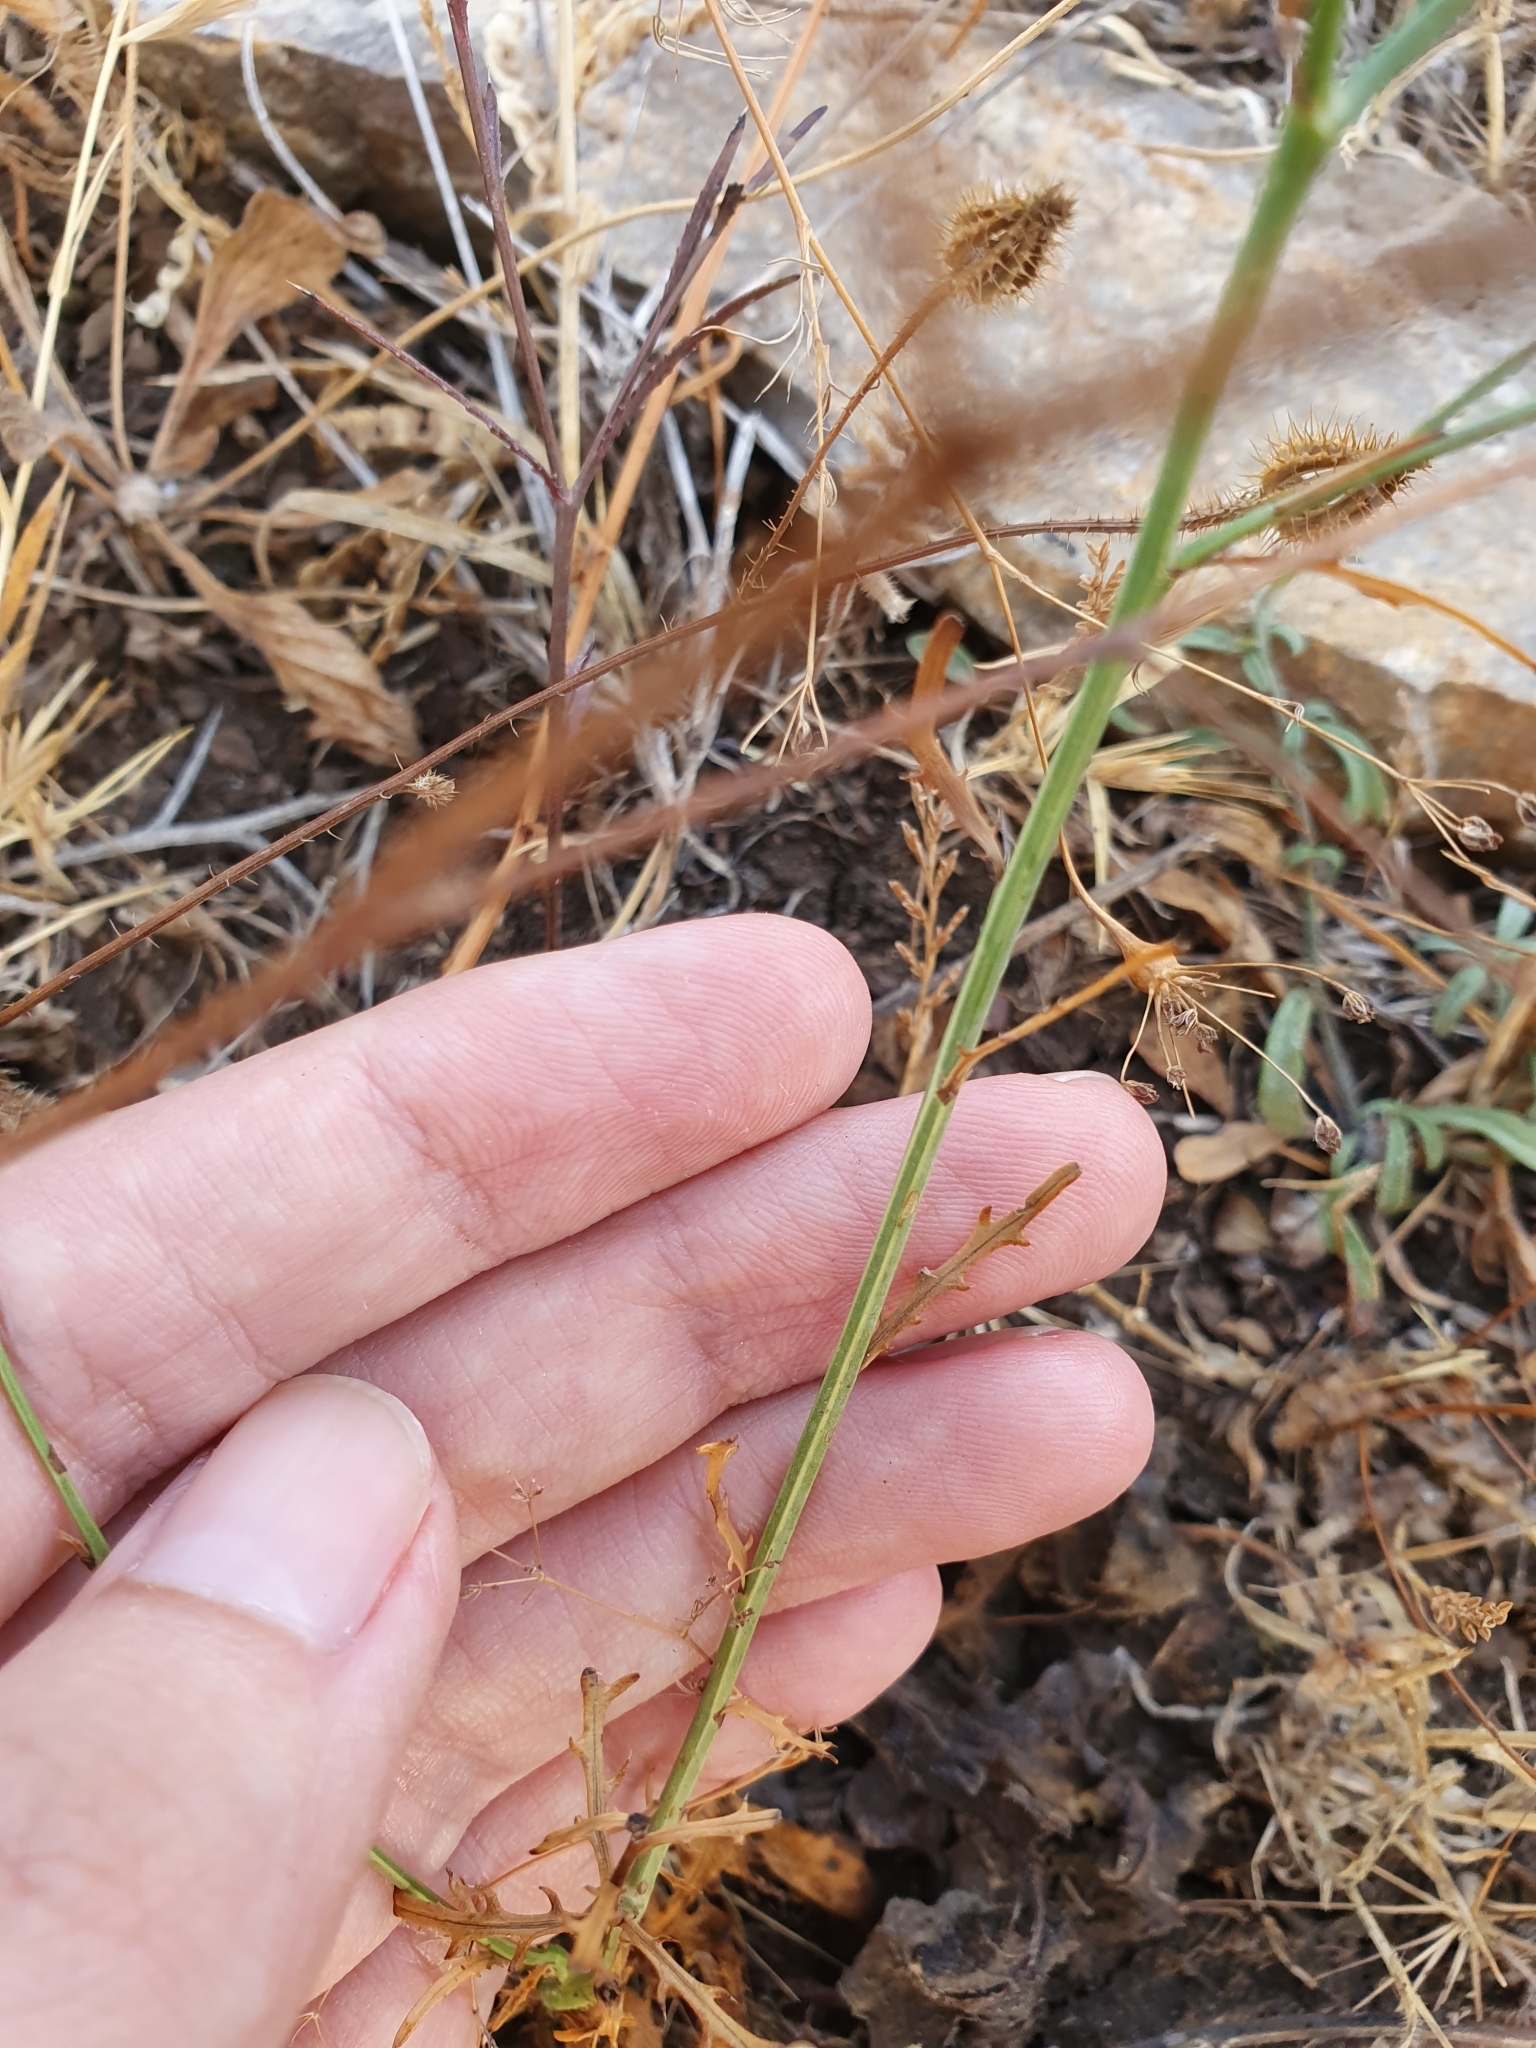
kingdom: Plantae
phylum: Tracheophyta
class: Magnoliopsida
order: Asterales
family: Asteraceae
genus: Mantisalca
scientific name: Mantisalca salmantica
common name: Dagger flower
